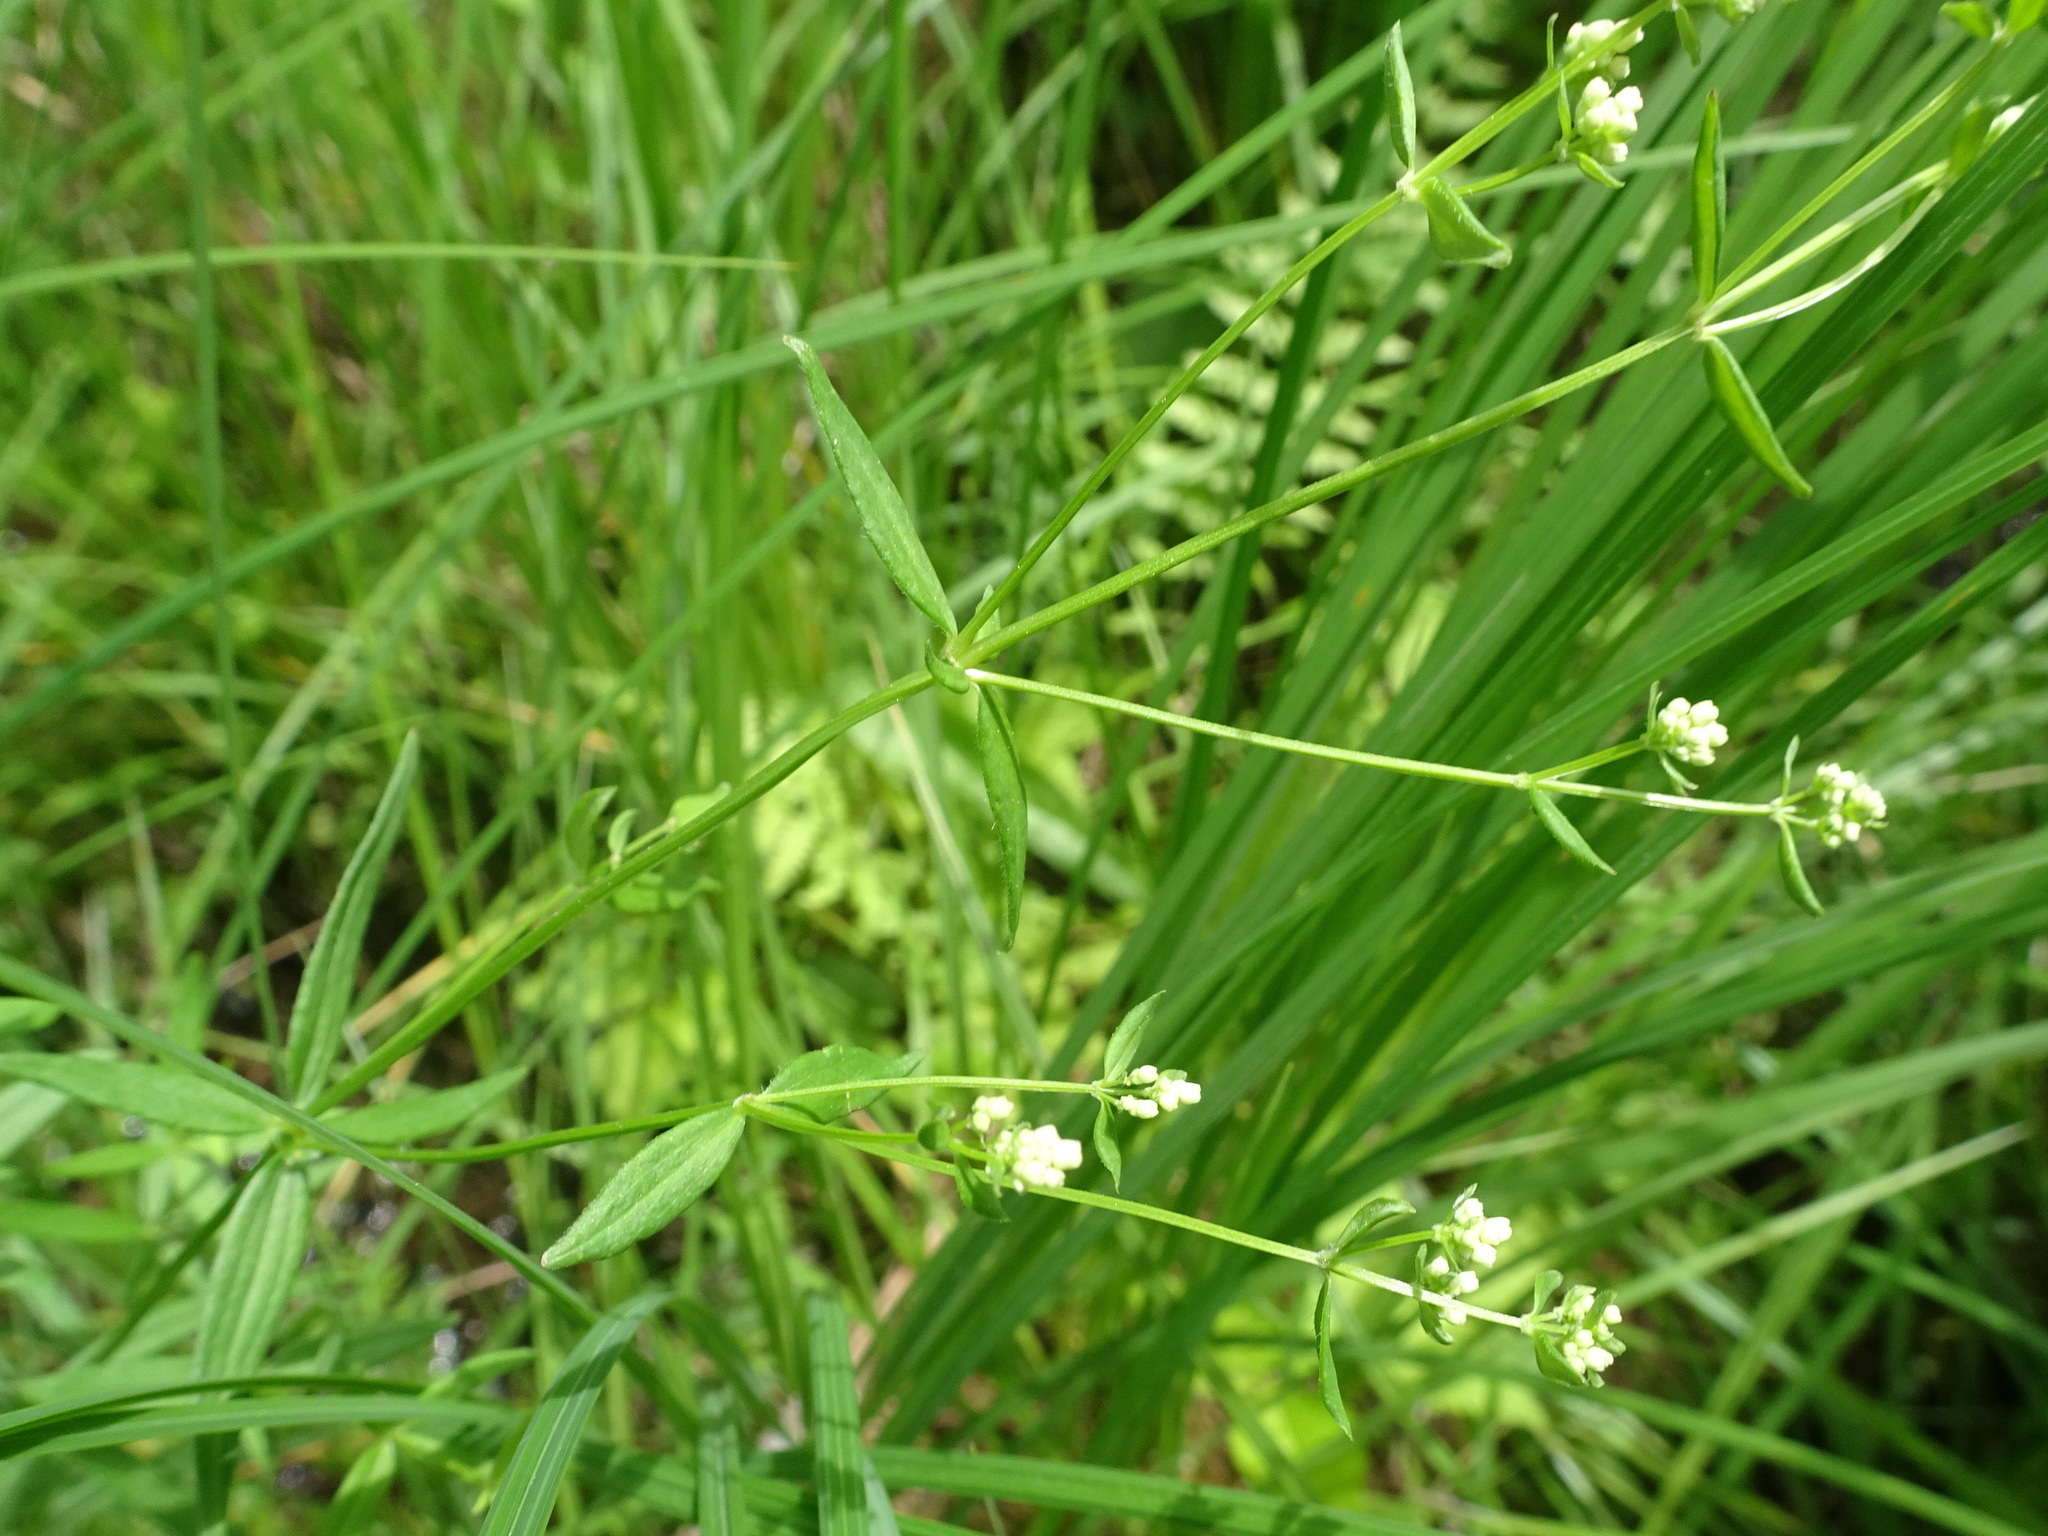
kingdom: Plantae
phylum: Tracheophyta
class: Magnoliopsida
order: Gentianales
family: Rubiaceae
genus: Galium
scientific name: Galium boreale
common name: Northern bedstraw
